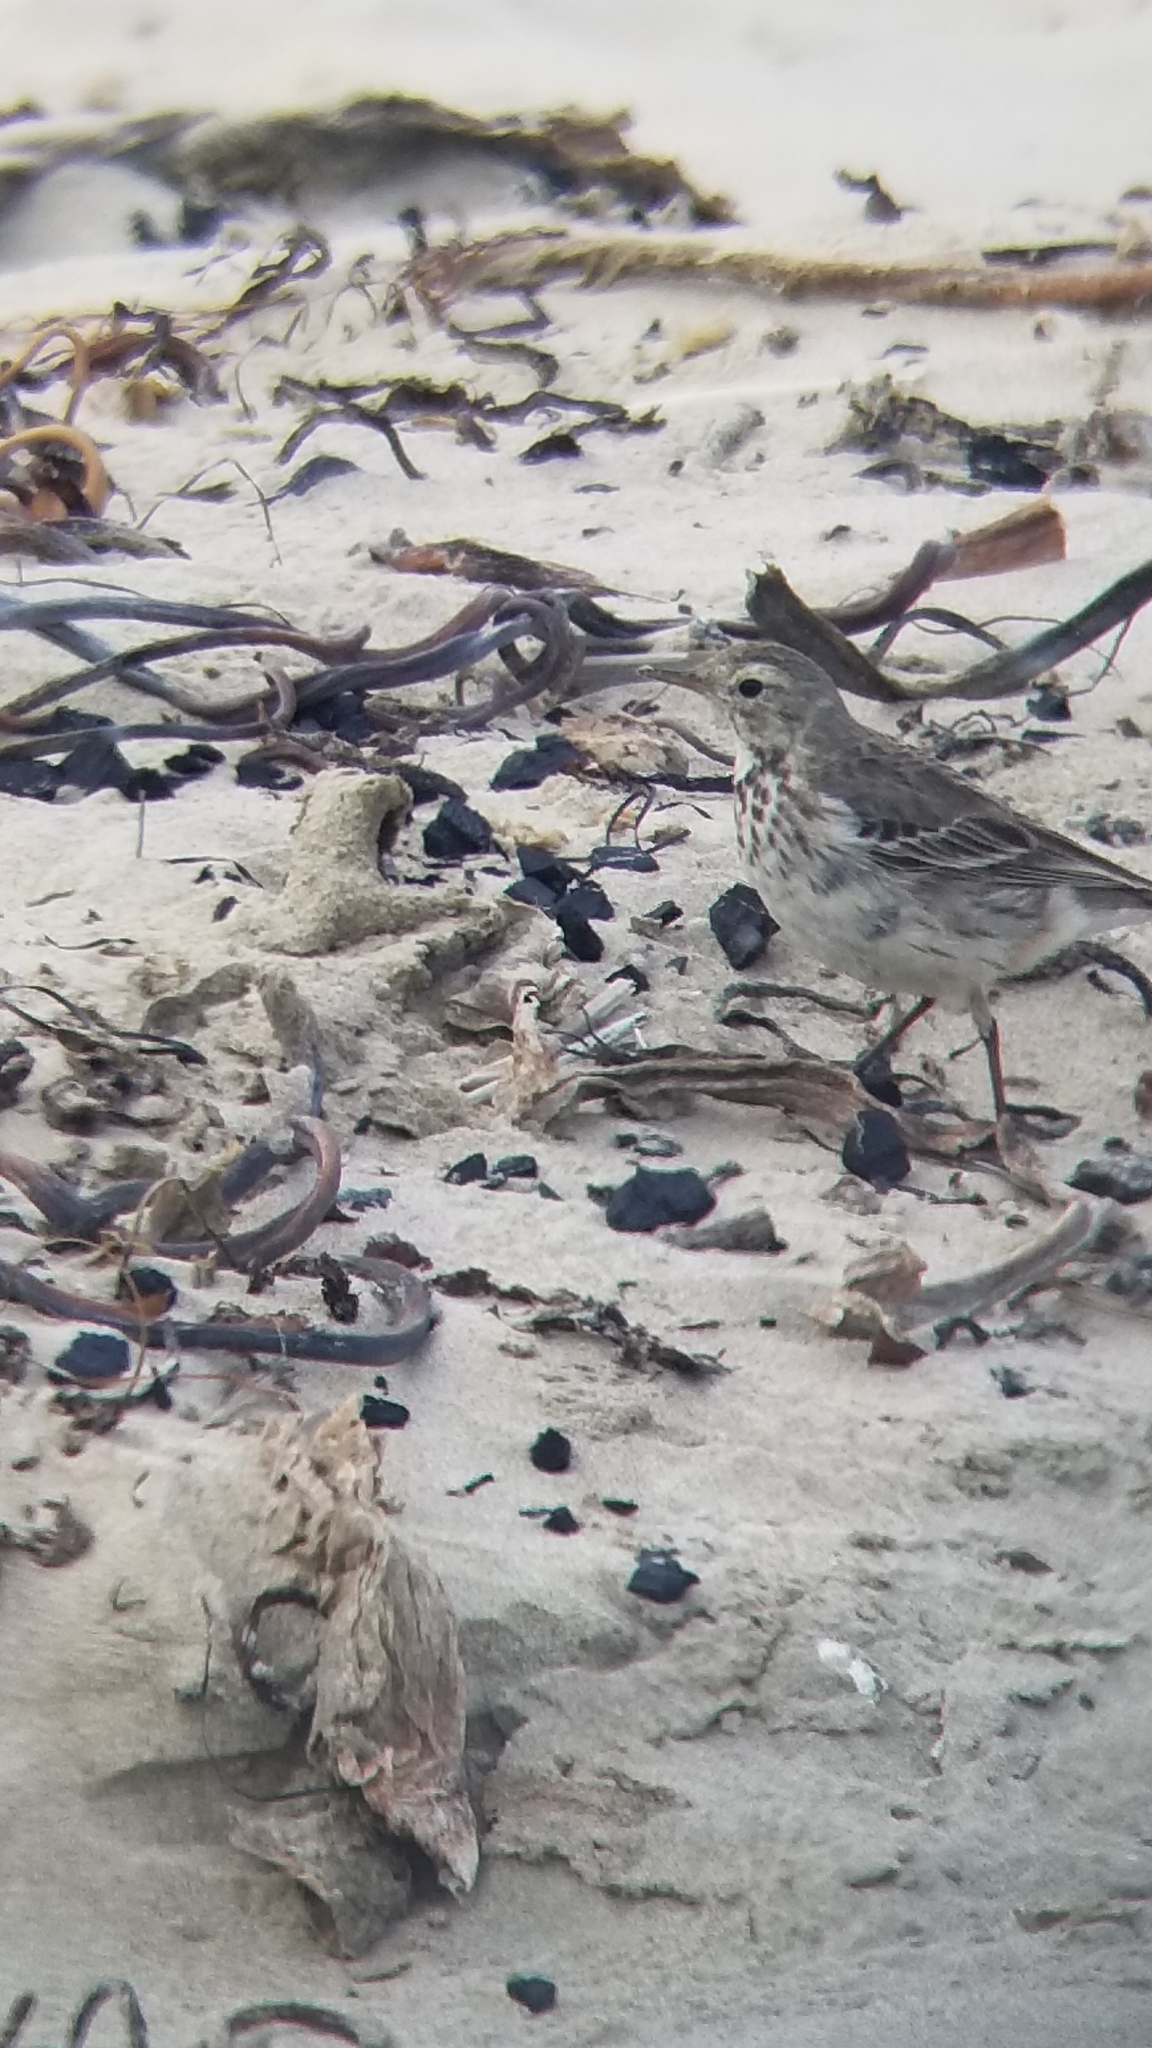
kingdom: Animalia
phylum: Chordata
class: Aves
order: Passeriformes
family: Motacillidae
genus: Anthus
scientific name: Anthus rubescens
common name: Buff-bellied pipit
